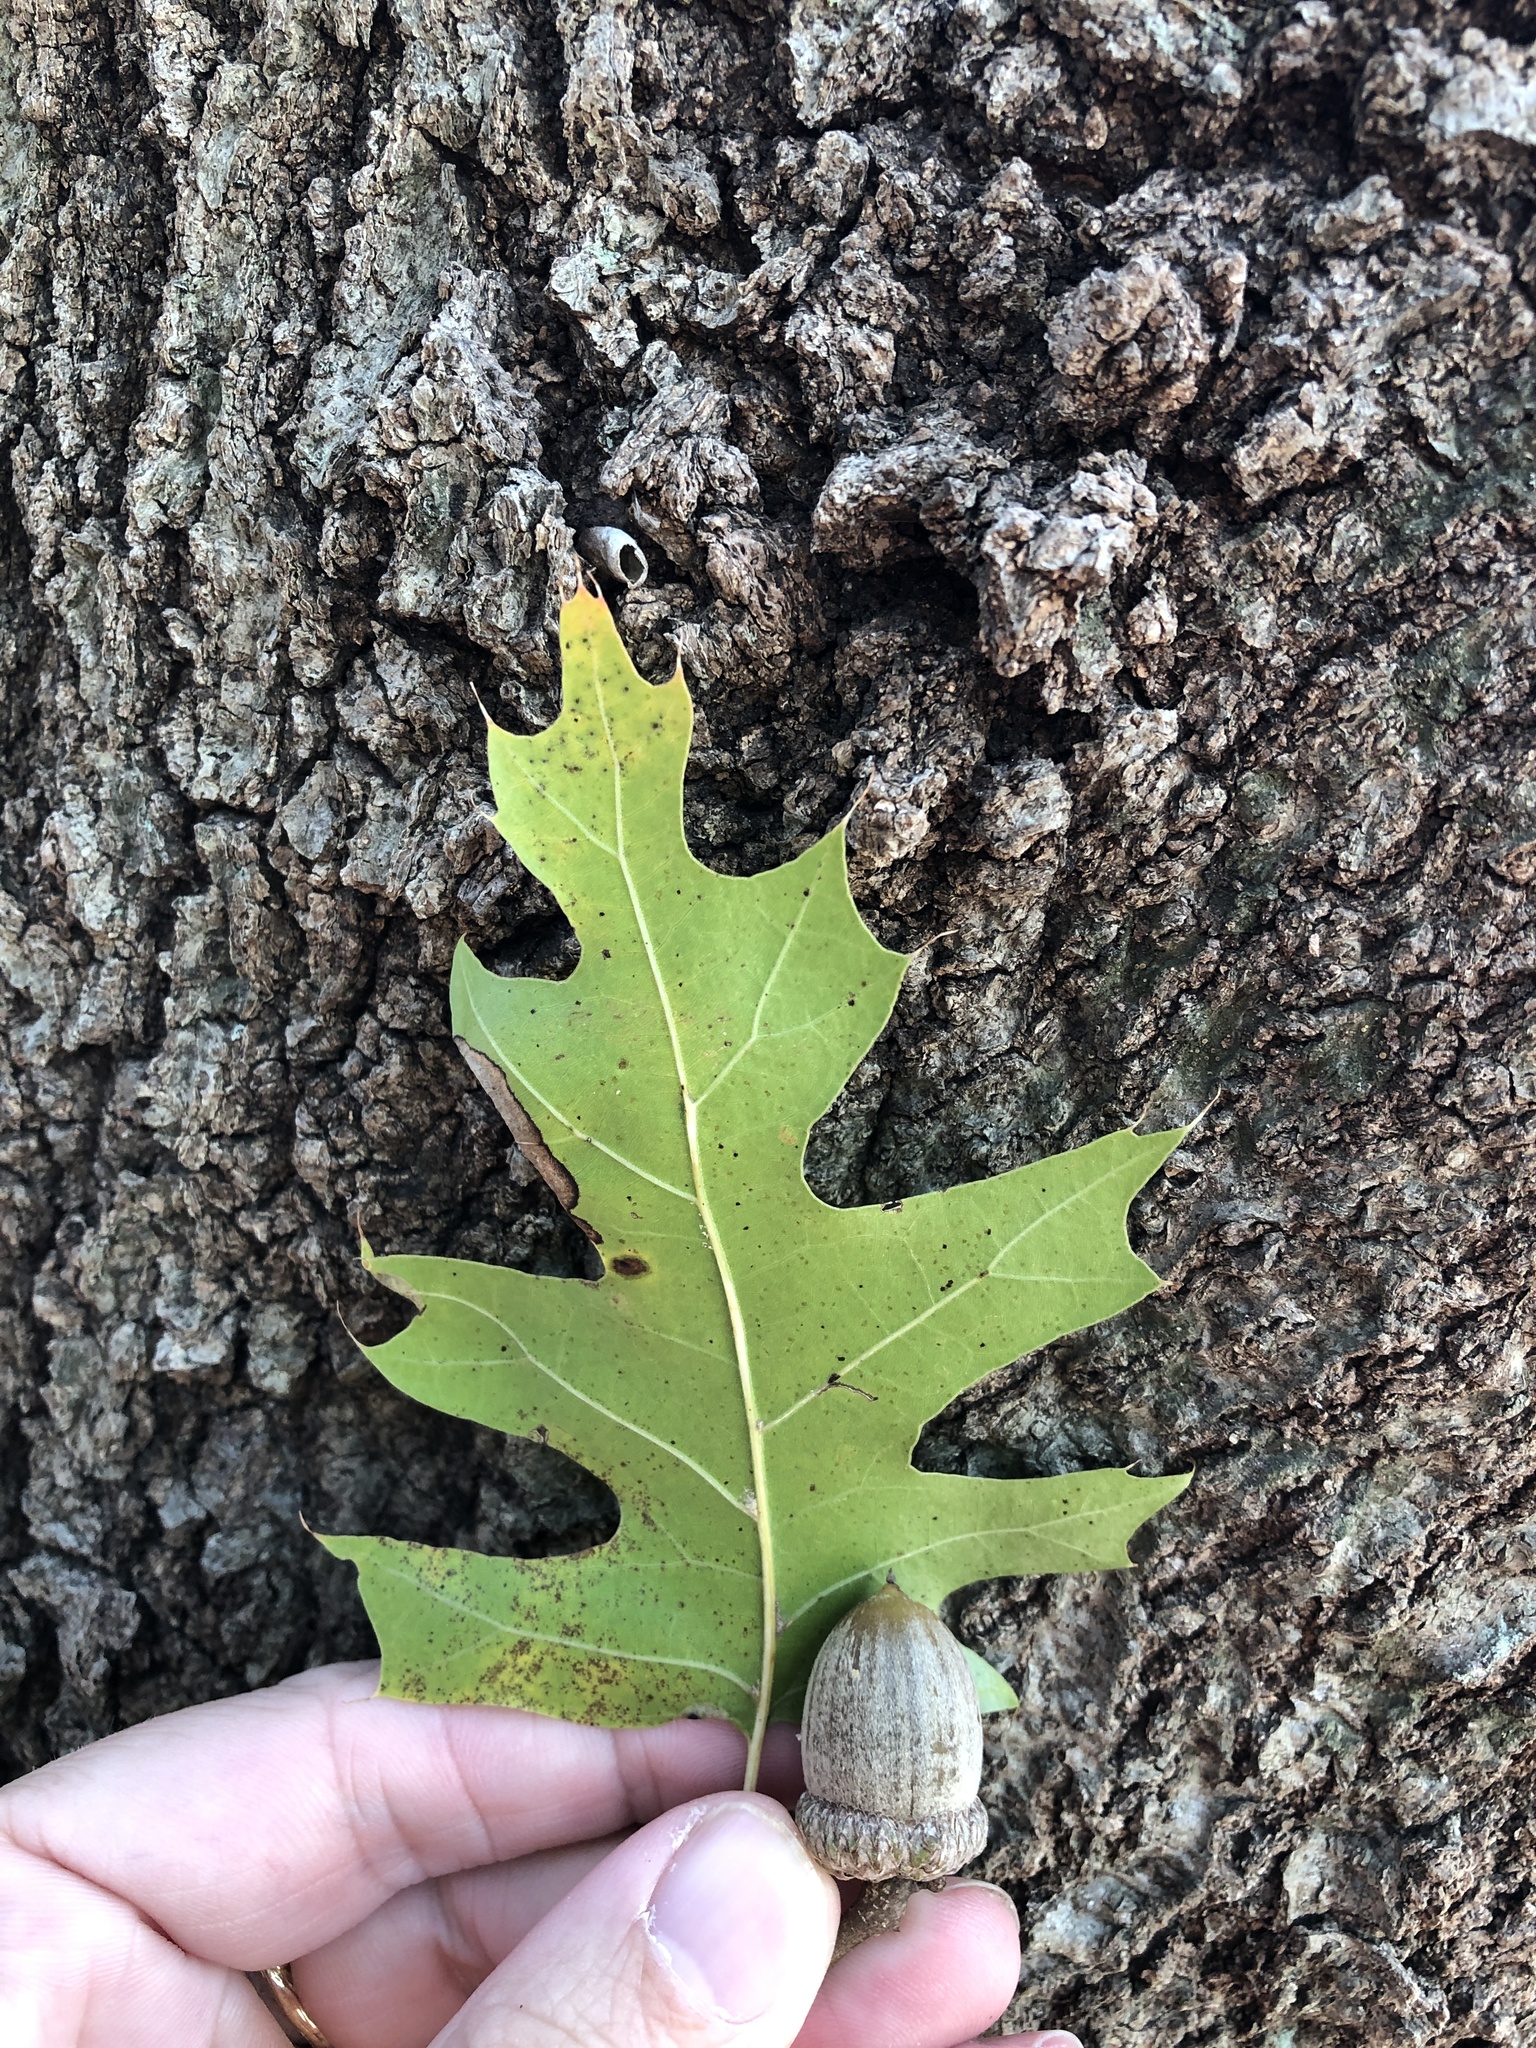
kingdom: Plantae
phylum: Tracheophyta
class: Magnoliopsida
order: Fagales
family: Fagaceae
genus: Quercus
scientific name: Quercus shumardii
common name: Shumard oak
